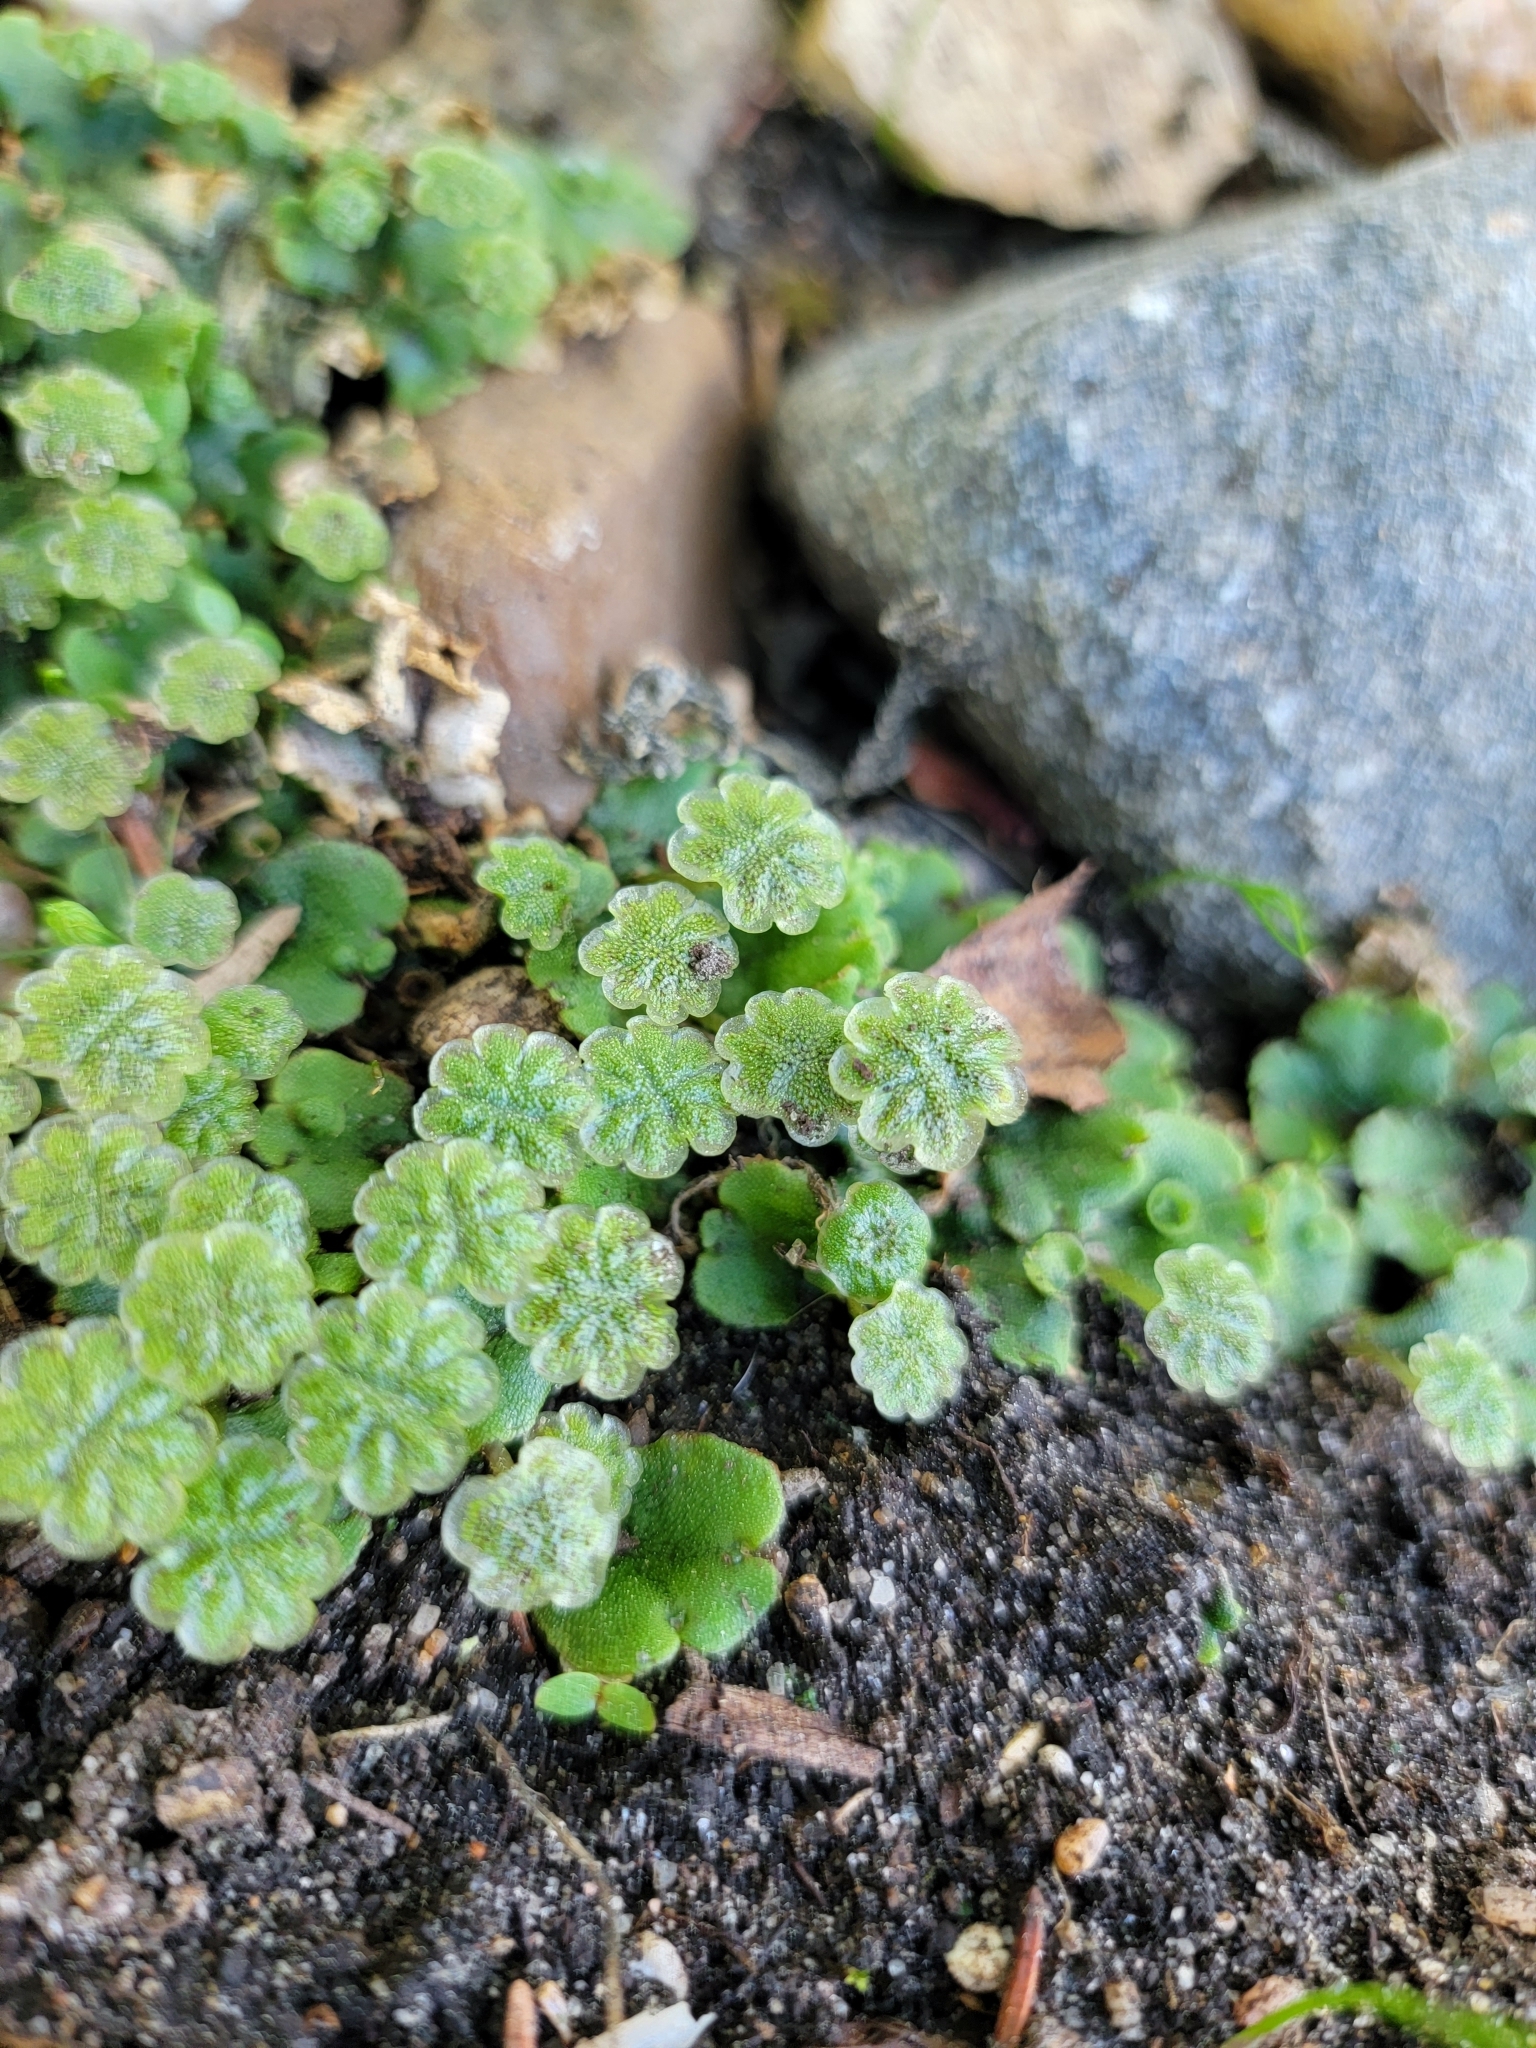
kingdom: Plantae
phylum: Marchantiophyta
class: Marchantiopsida
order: Marchantiales
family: Marchantiaceae
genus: Marchantia
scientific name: Marchantia polymorpha
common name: Common liverwort
